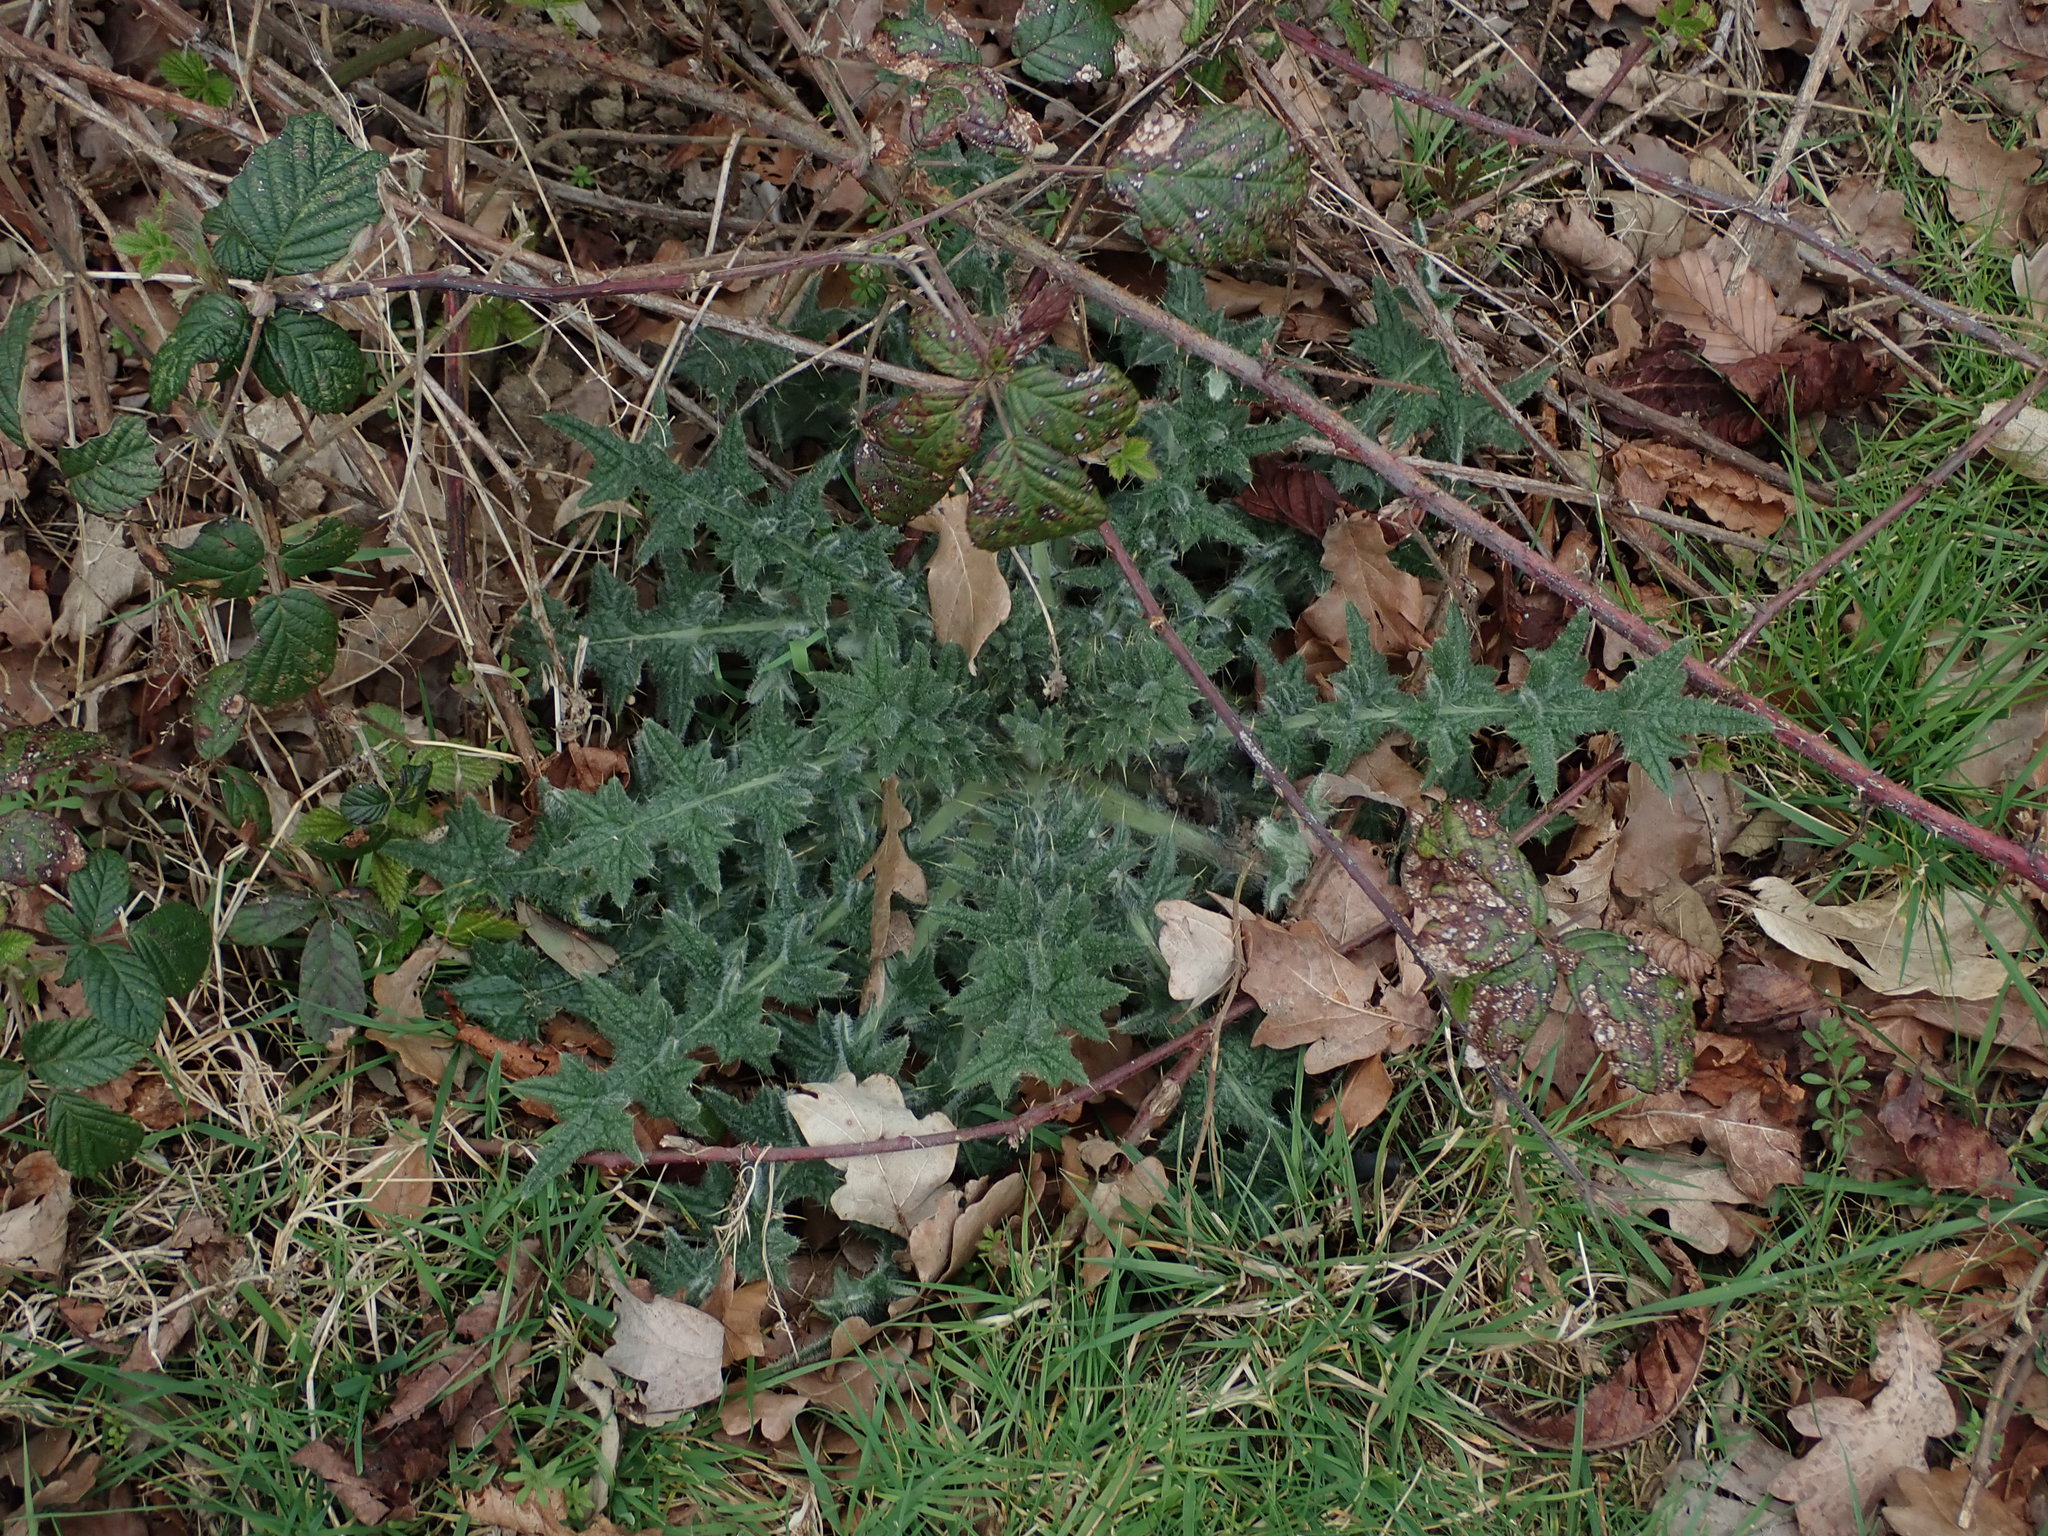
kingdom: Plantae
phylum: Tracheophyta
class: Magnoliopsida
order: Asterales
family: Asteraceae
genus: Cirsium
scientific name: Cirsium vulgare
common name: Bull thistle
